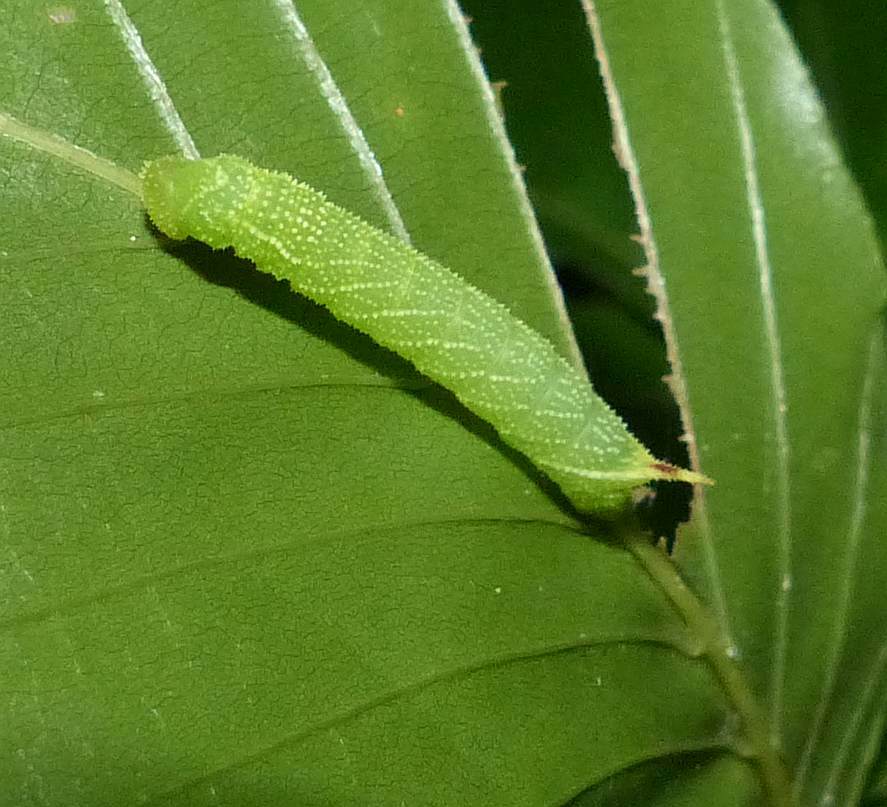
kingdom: Animalia
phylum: Arthropoda
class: Insecta
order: Lepidoptera
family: Sphingidae
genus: Paonias
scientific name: Paonias excaecata
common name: Blind-eyed sphinx
